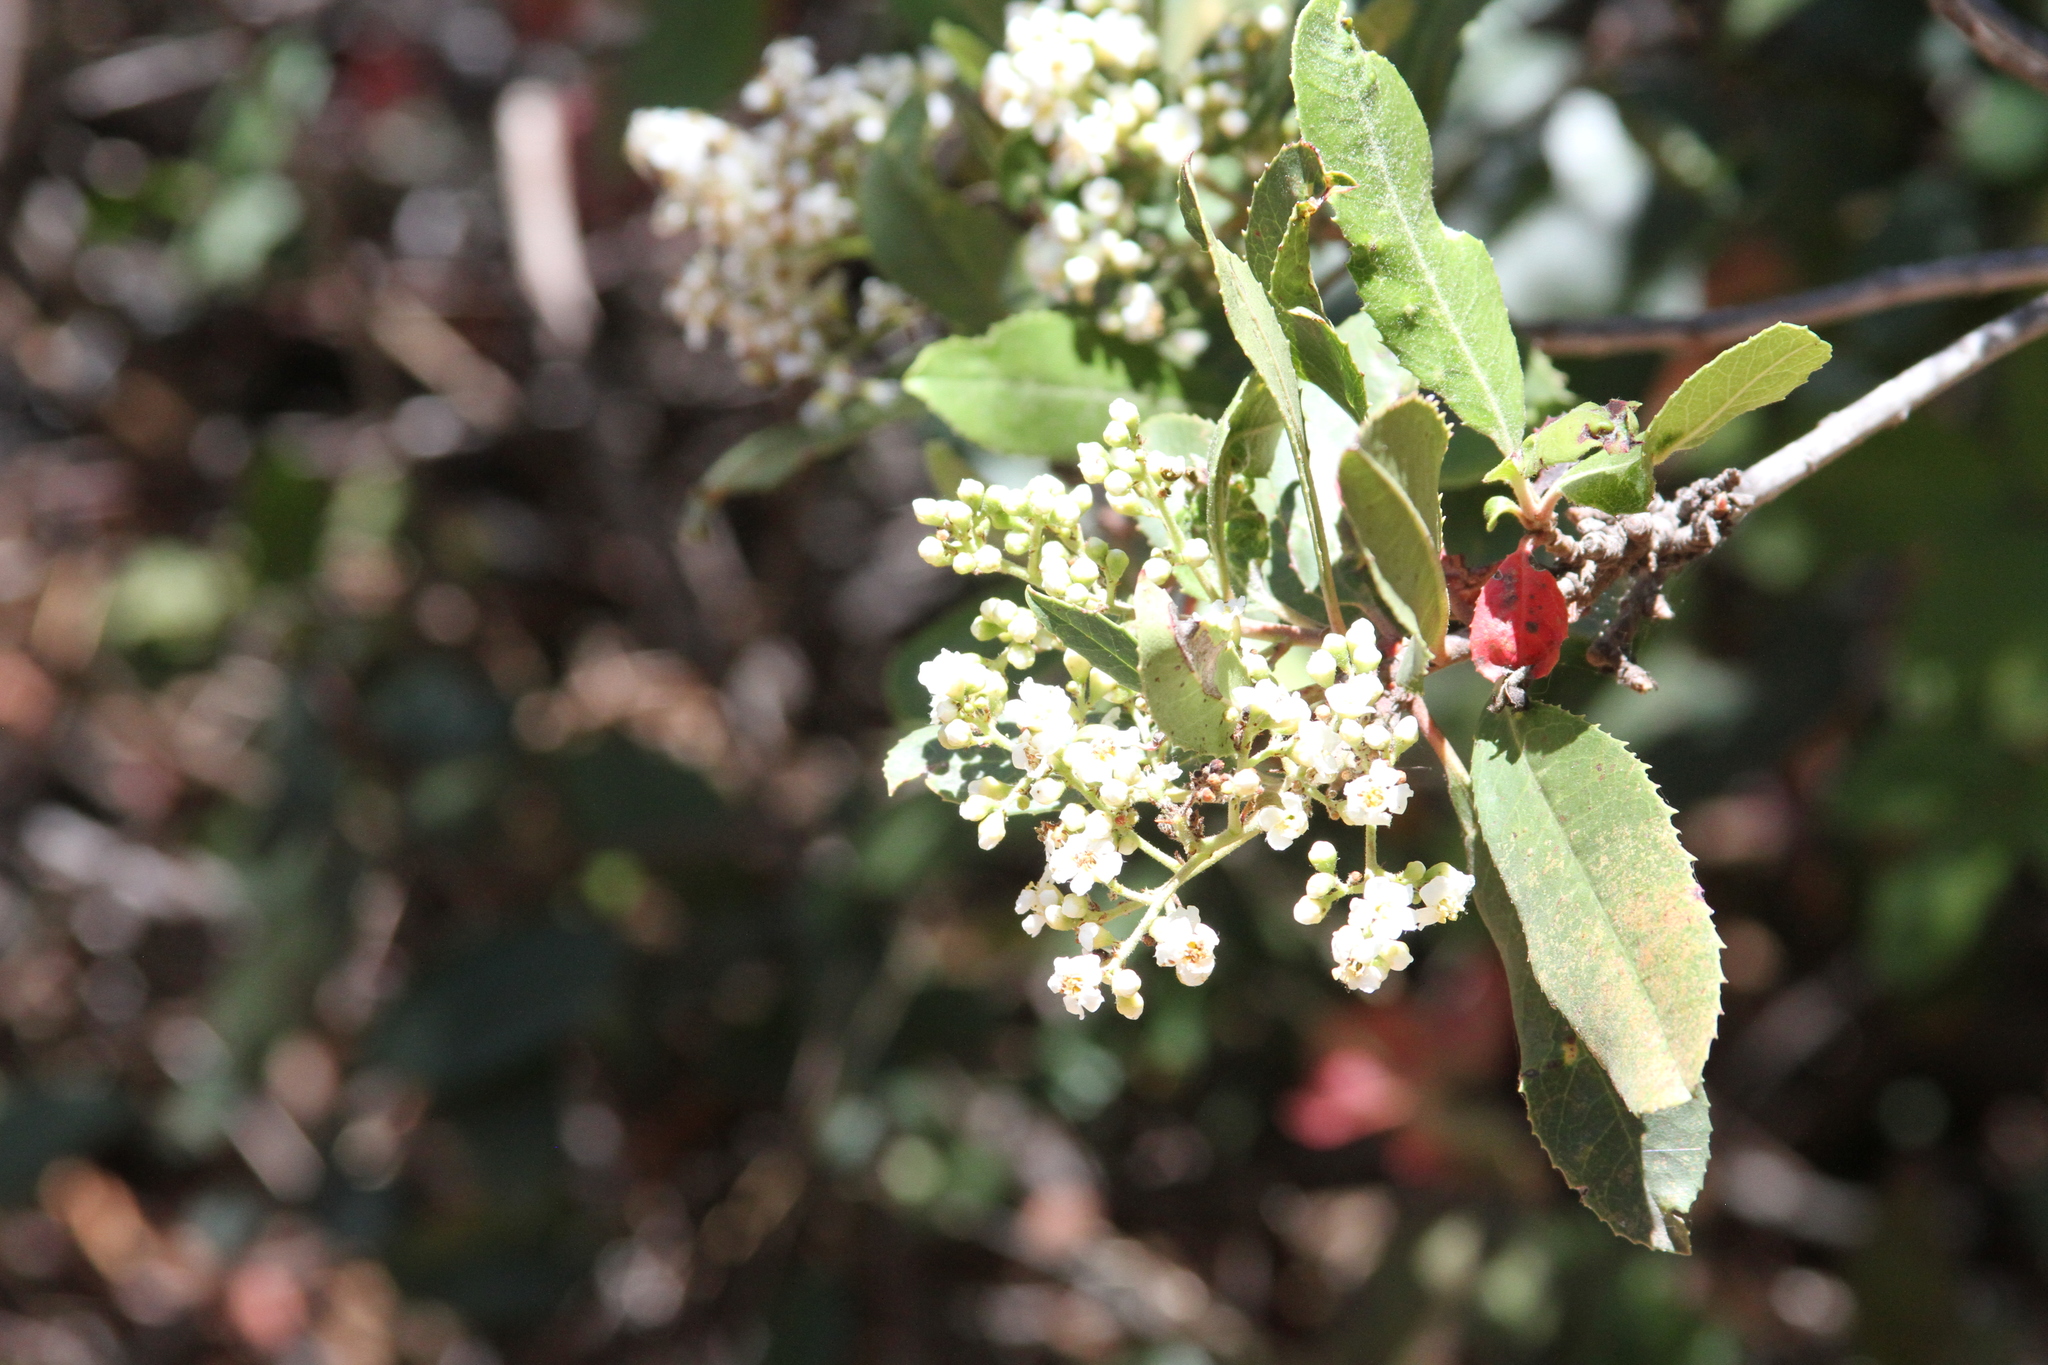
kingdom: Plantae
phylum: Tracheophyta
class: Magnoliopsida
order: Rosales
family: Rosaceae
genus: Heteromeles
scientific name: Heteromeles arbutifolia
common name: California-holly
